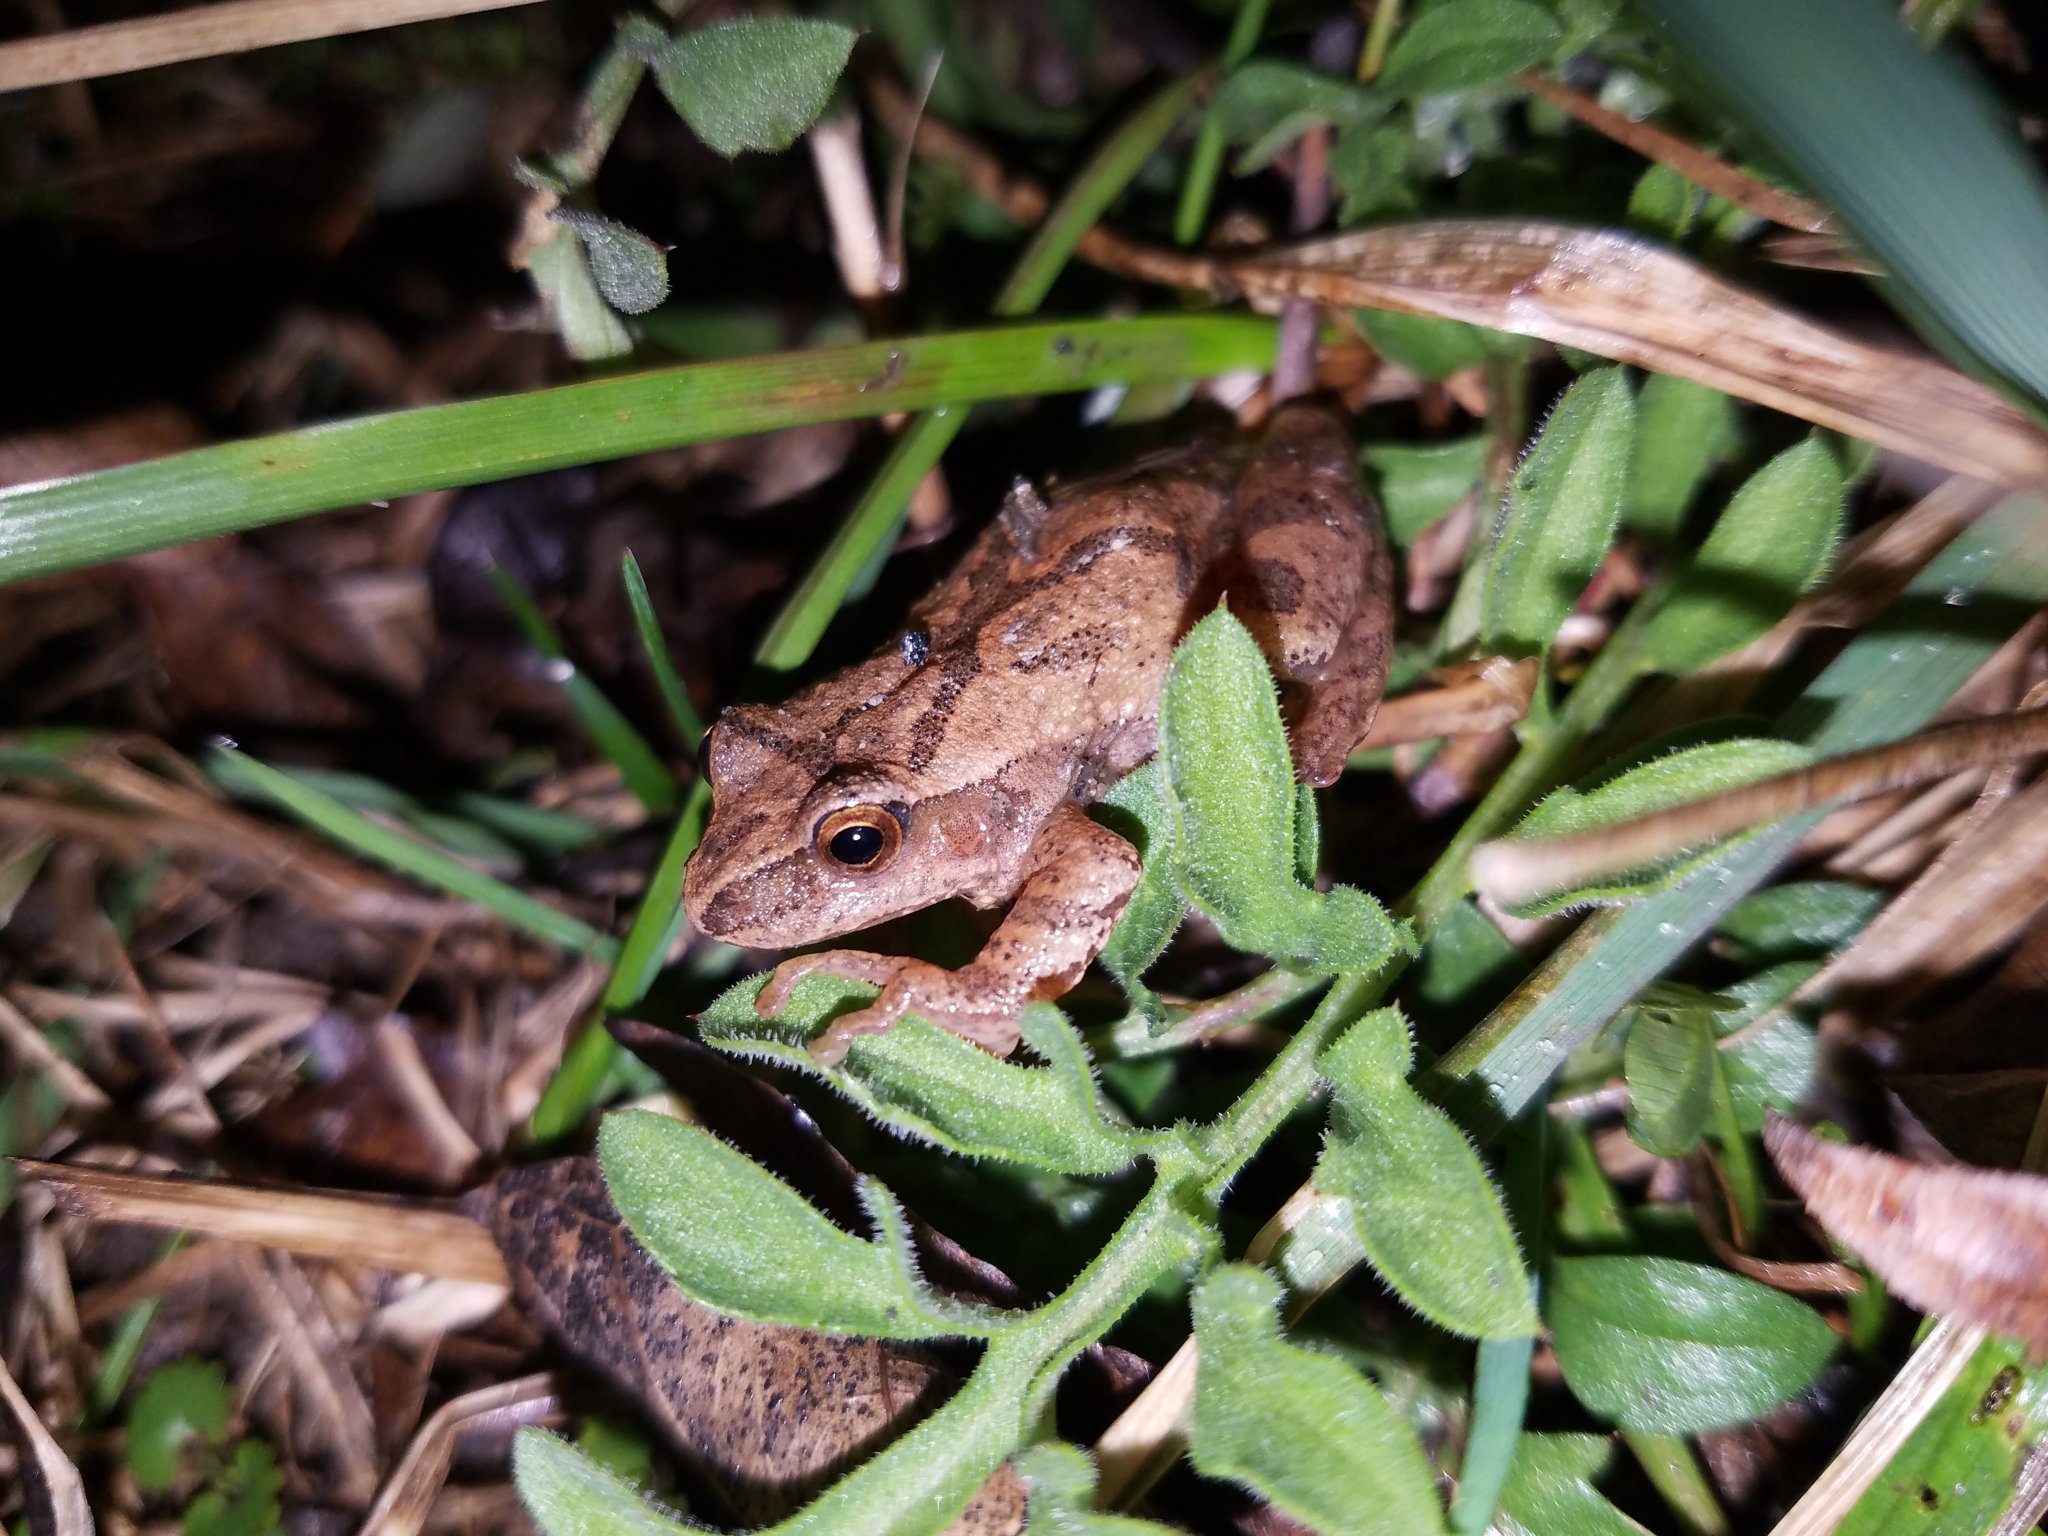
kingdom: Animalia
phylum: Chordata
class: Amphibia
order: Anura
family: Hylidae
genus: Pseudacris
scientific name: Pseudacris crucifer
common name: Spring peeper
